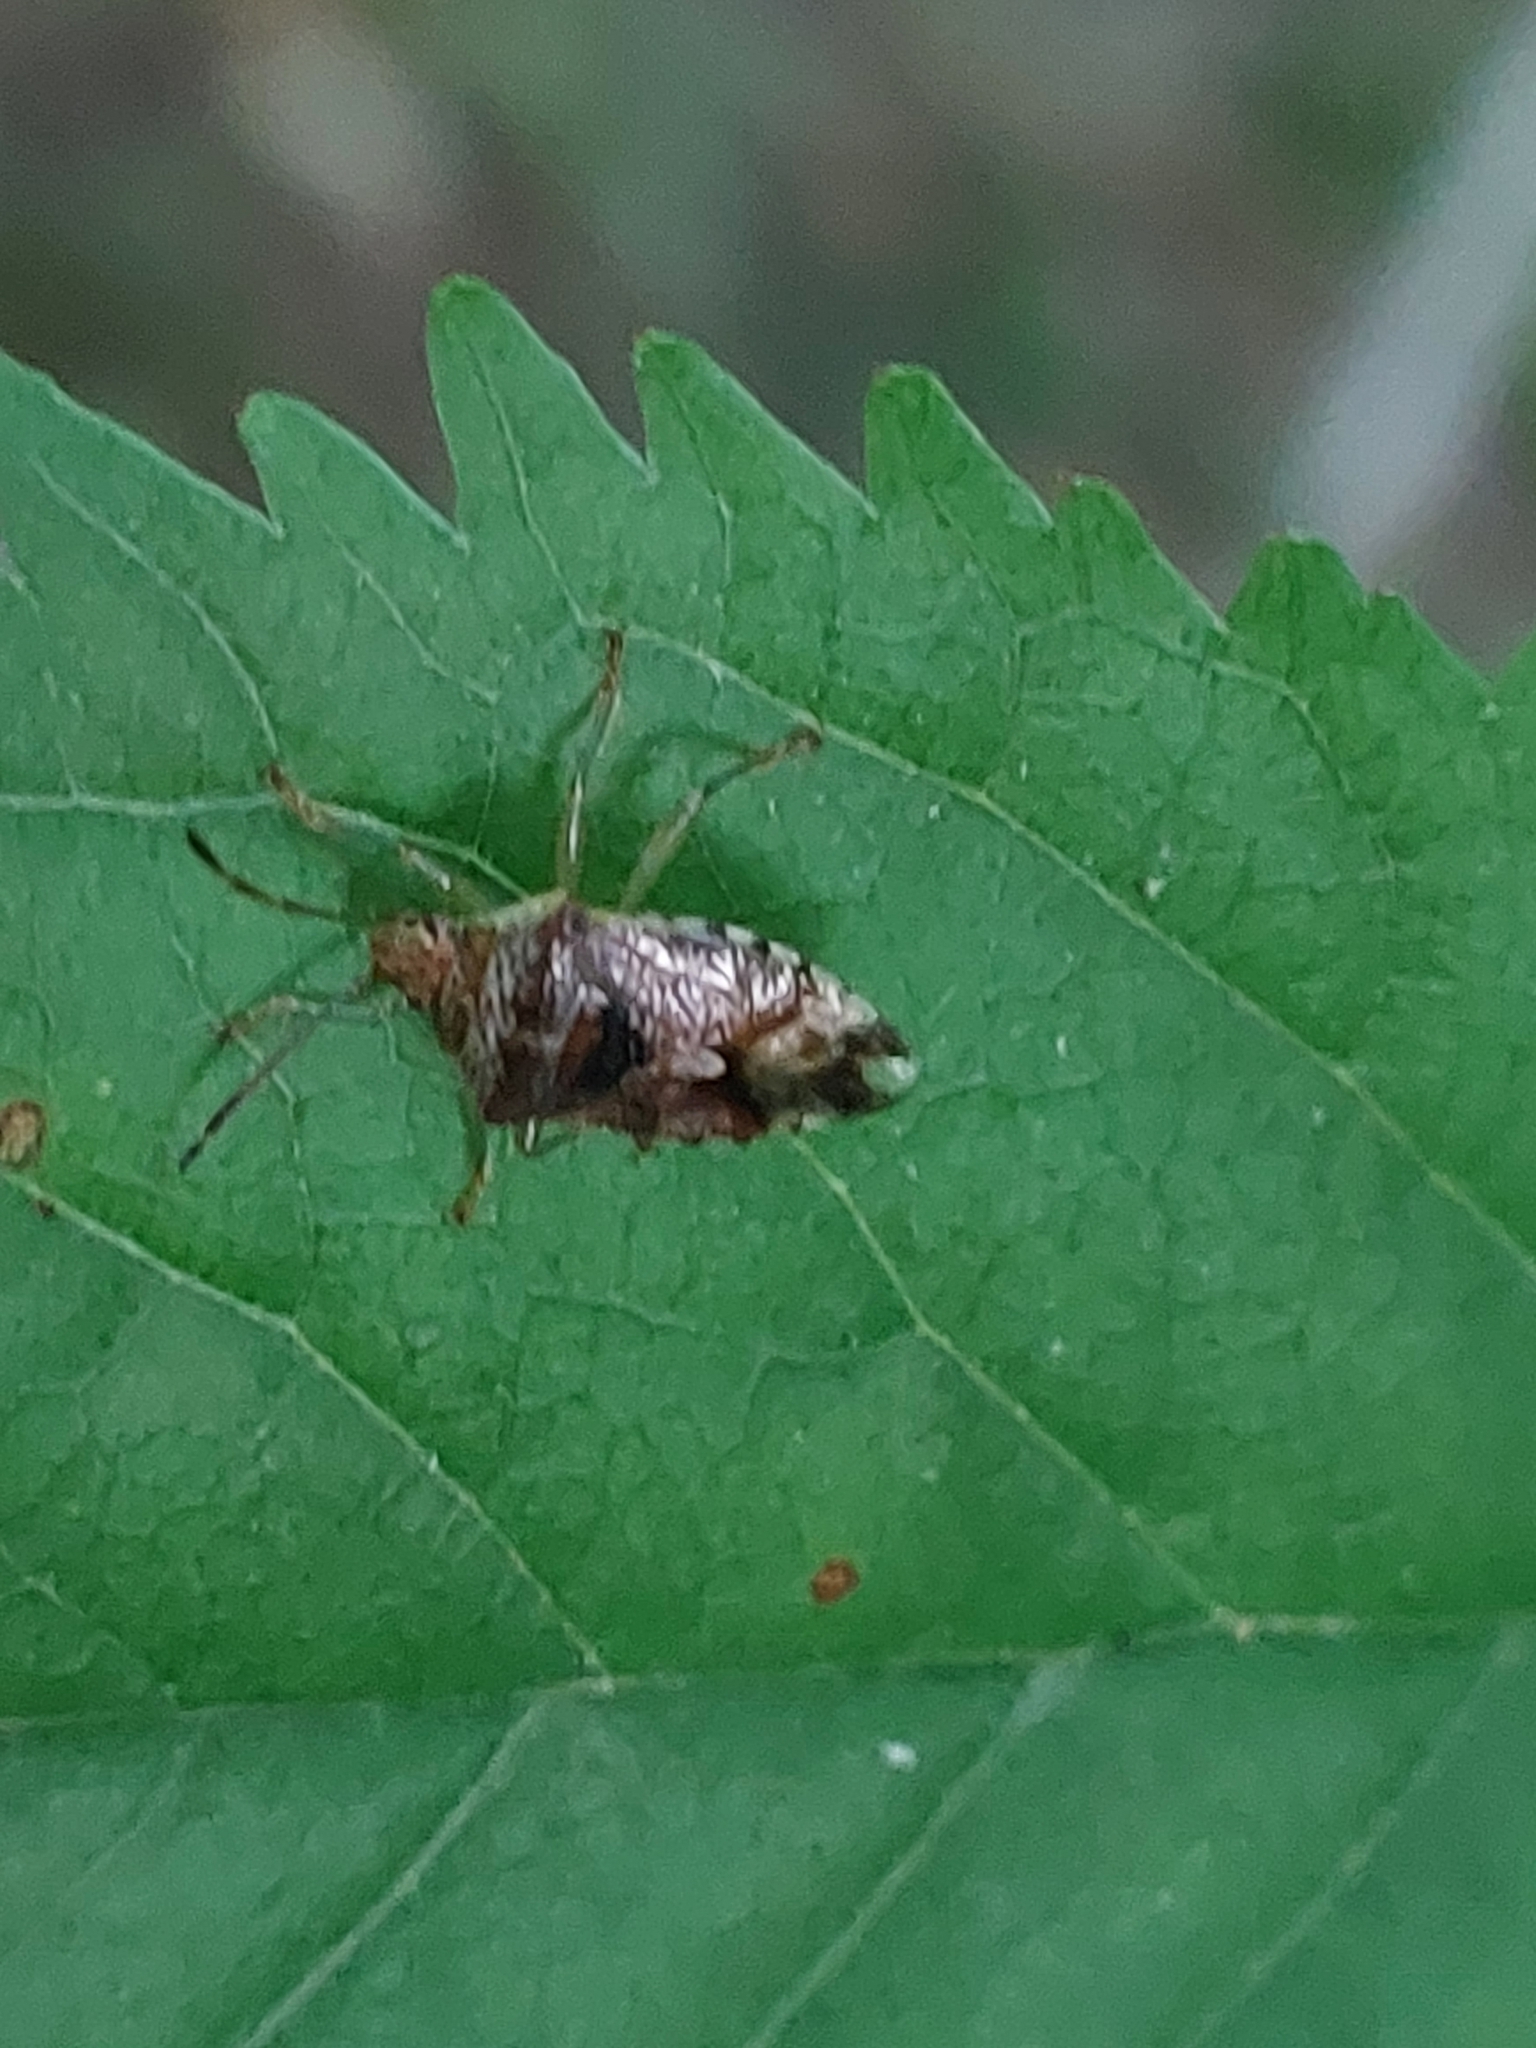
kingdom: Animalia
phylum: Arthropoda
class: Insecta
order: Hemiptera
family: Acanthosomatidae
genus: Elasmucha
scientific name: Elasmucha grisea
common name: Parent bug
